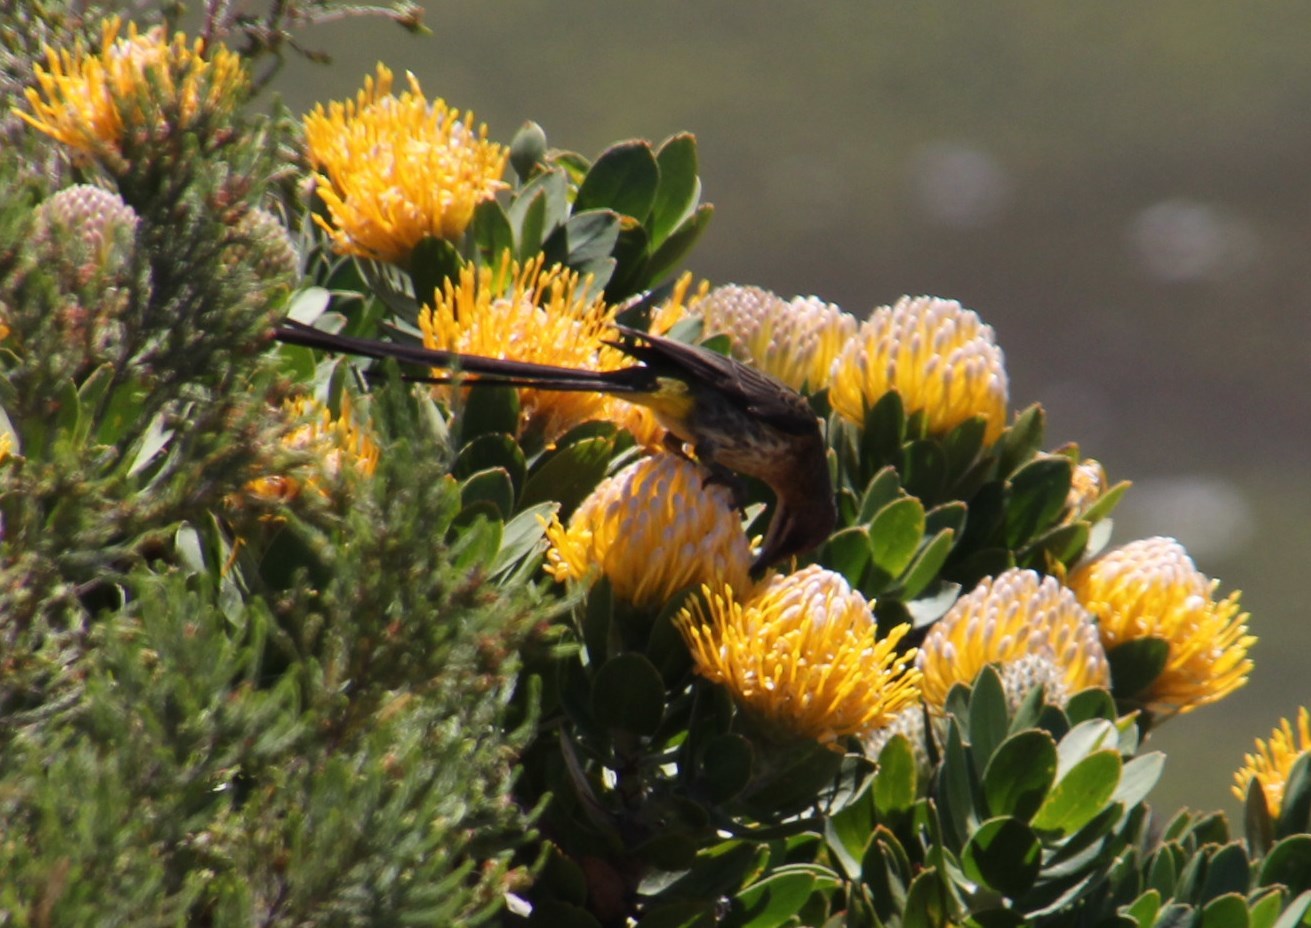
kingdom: Animalia
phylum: Chordata
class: Aves
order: Passeriformes
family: Promeropidae
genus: Promerops
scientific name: Promerops cafer
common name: Cape sugarbird
